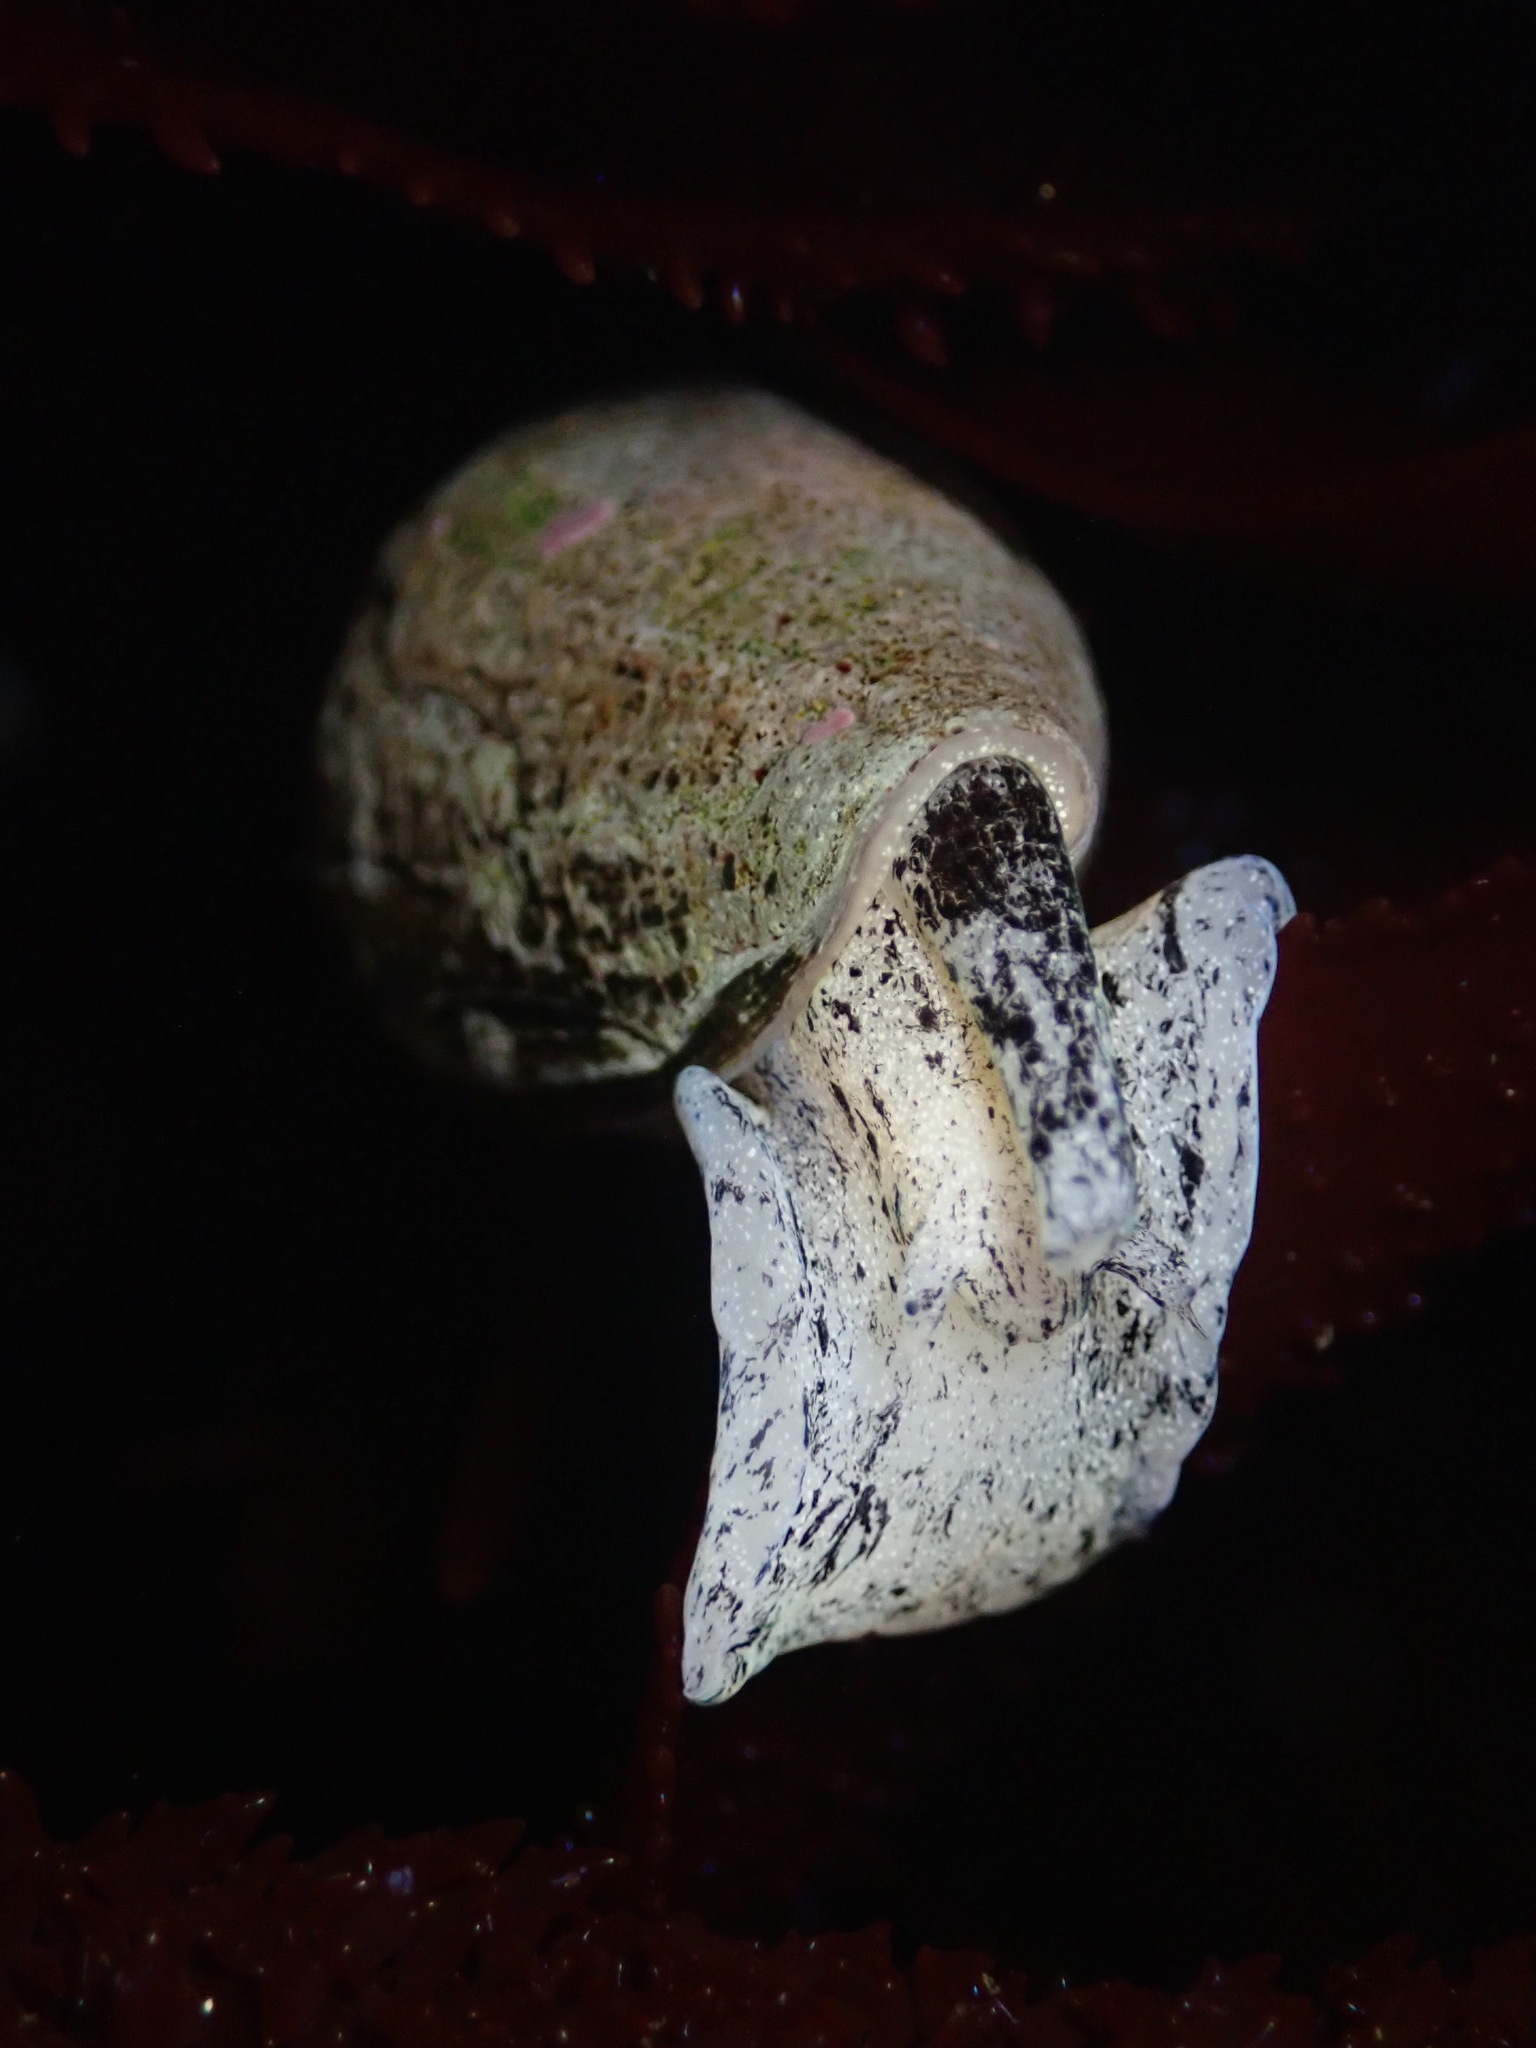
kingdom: Animalia
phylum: Mollusca
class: Gastropoda
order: Neogastropoda
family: Conidae
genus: Californiconus
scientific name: Californiconus californicus
